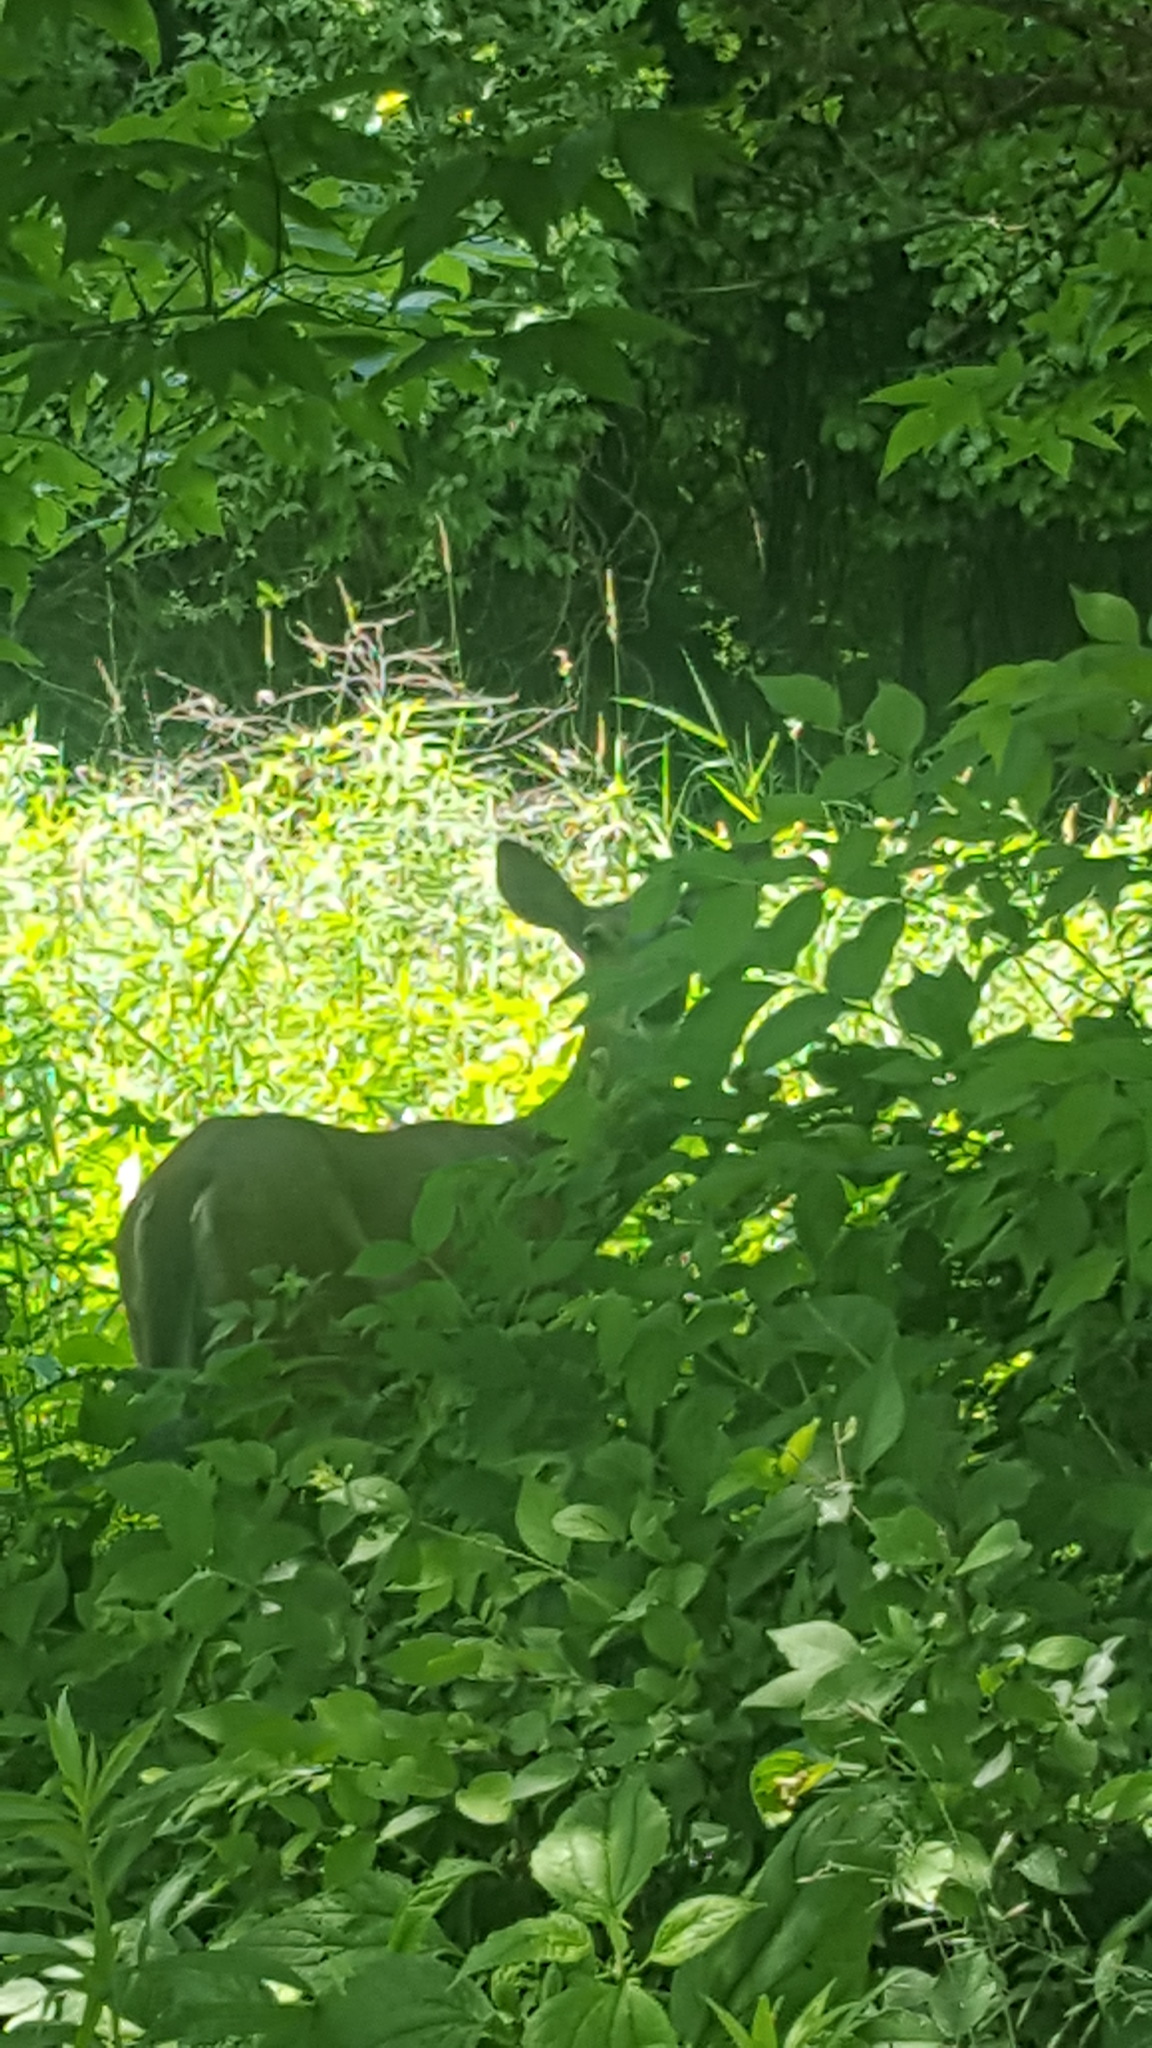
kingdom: Animalia
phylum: Chordata
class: Mammalia
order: Artiodactyla
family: Cervidae
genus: Odocoileus
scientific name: Odocoileus virginianus
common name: White-tailed deer
